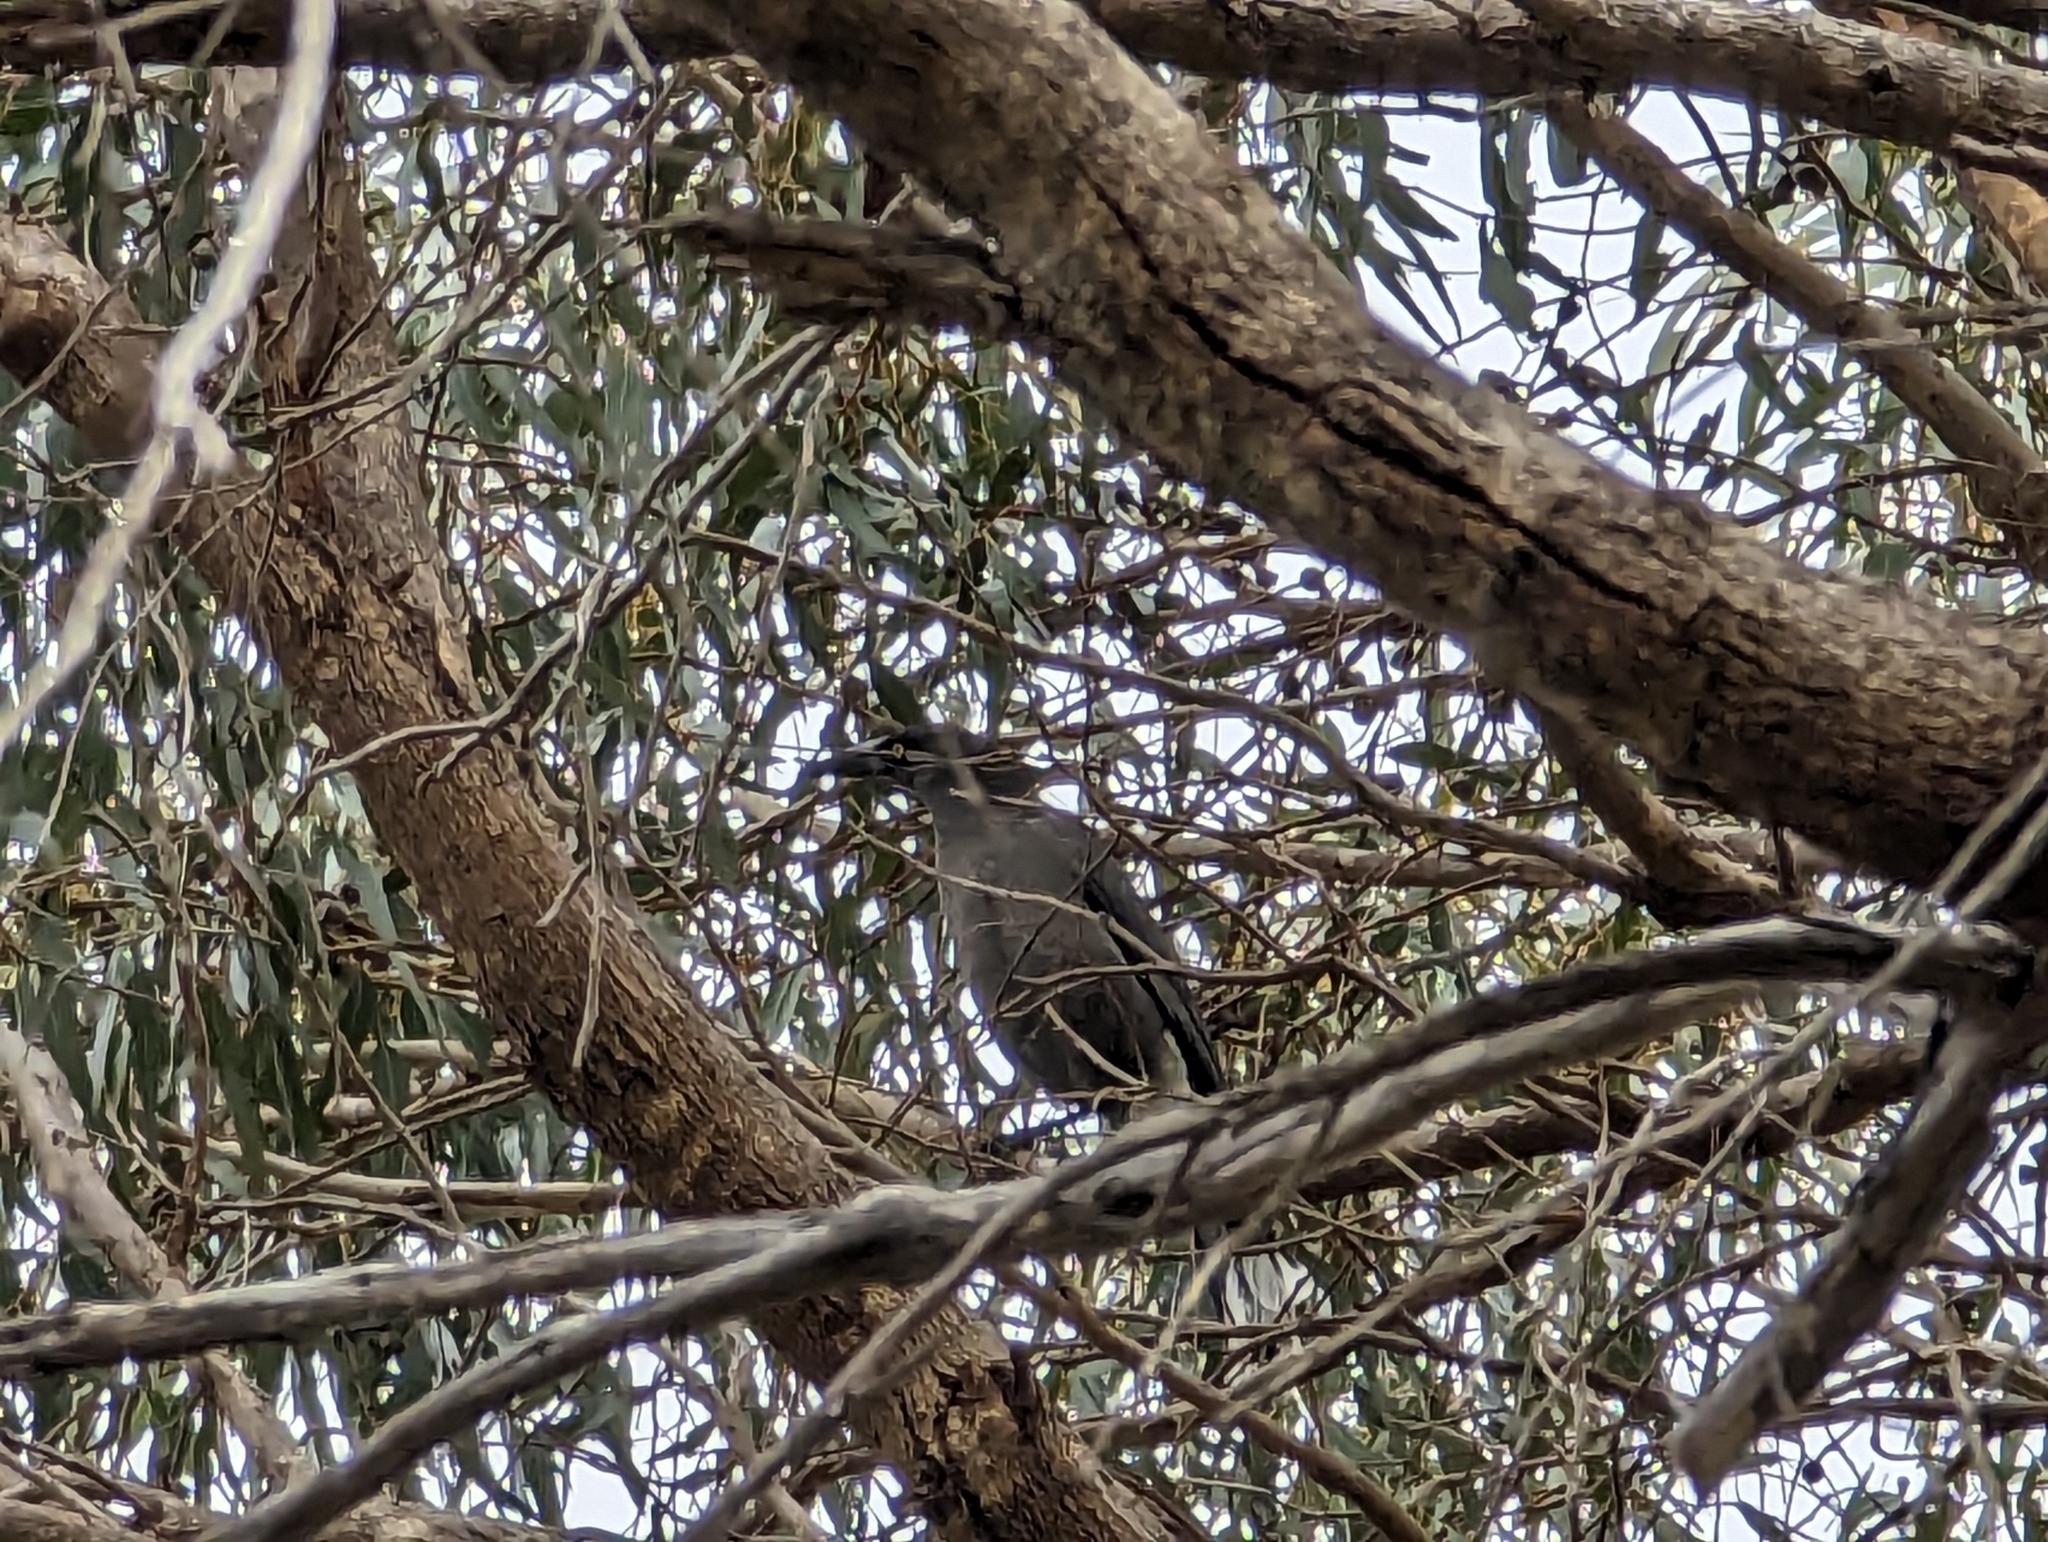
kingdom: Animalia
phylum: Chordata
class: Aves
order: Passeriformes
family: Cracticidae
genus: Strepera
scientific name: Strepera versicolor
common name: Grey currawong
